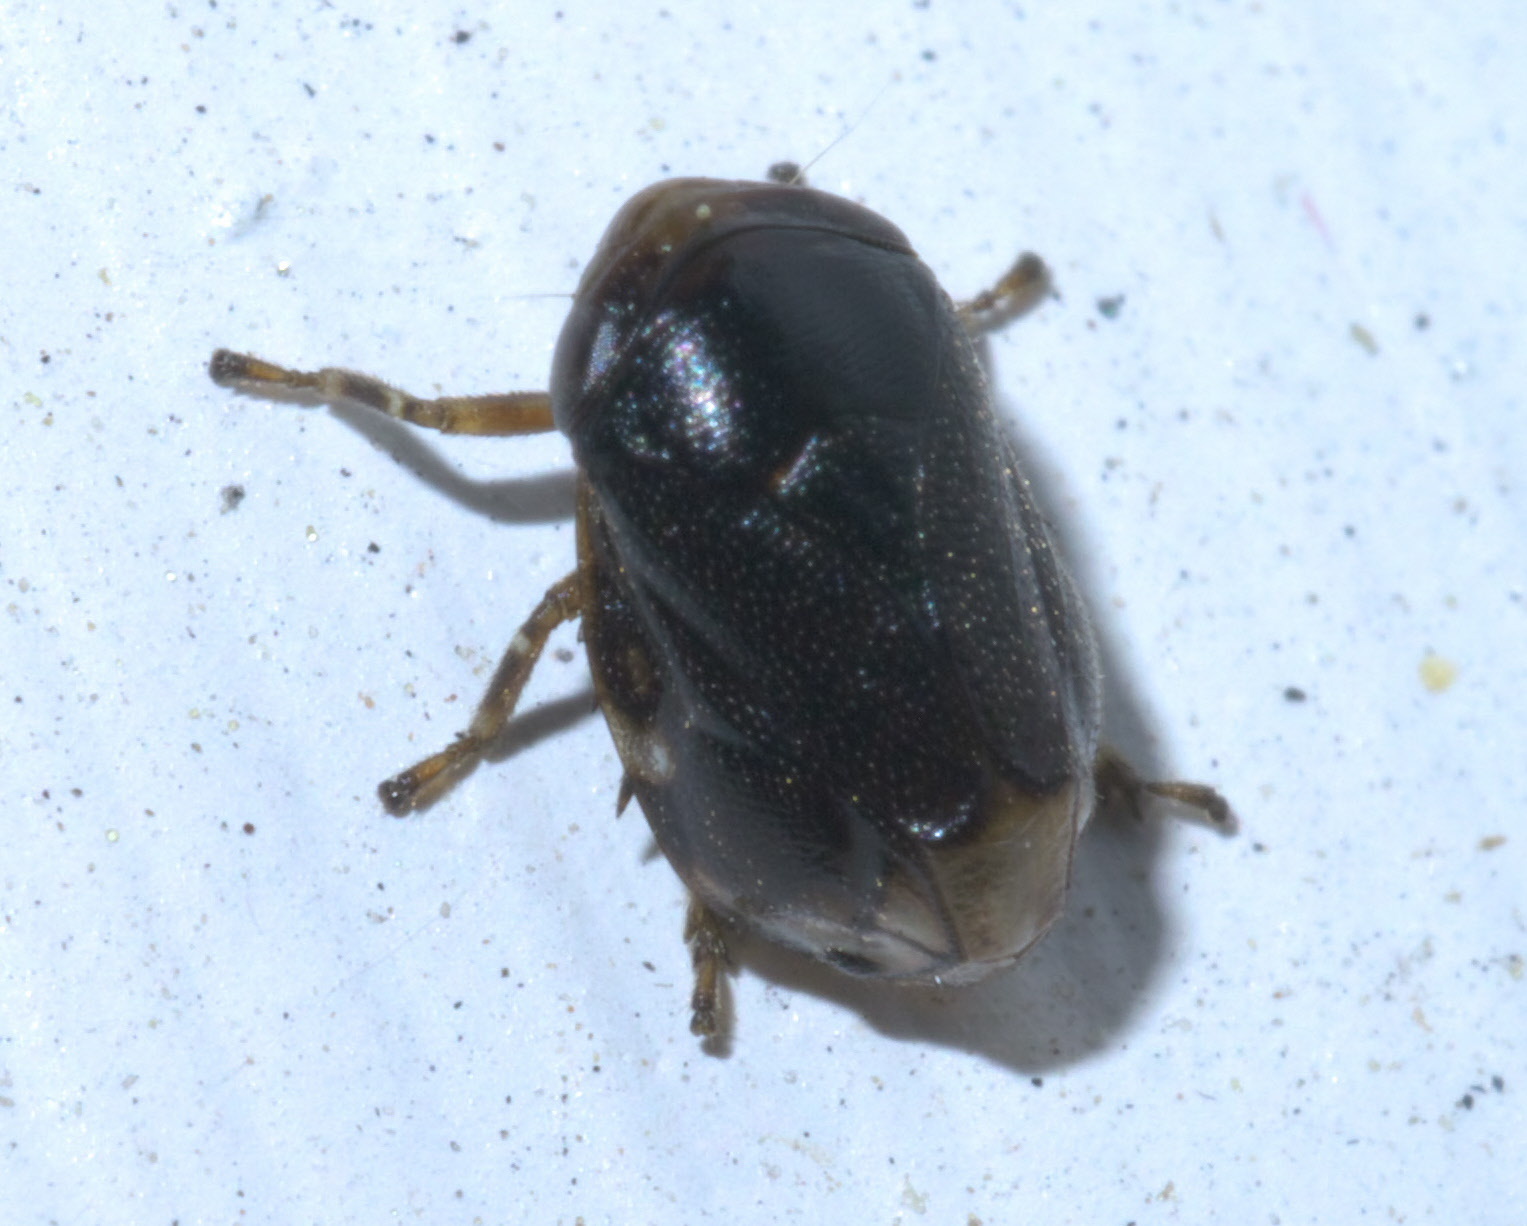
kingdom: Animalia
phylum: Arthropoda
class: Insecta
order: Hemiptera
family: Clastopteridae
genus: Clastoptera
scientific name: Clastoptera xanthocephala
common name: Sunflower spittlebug
